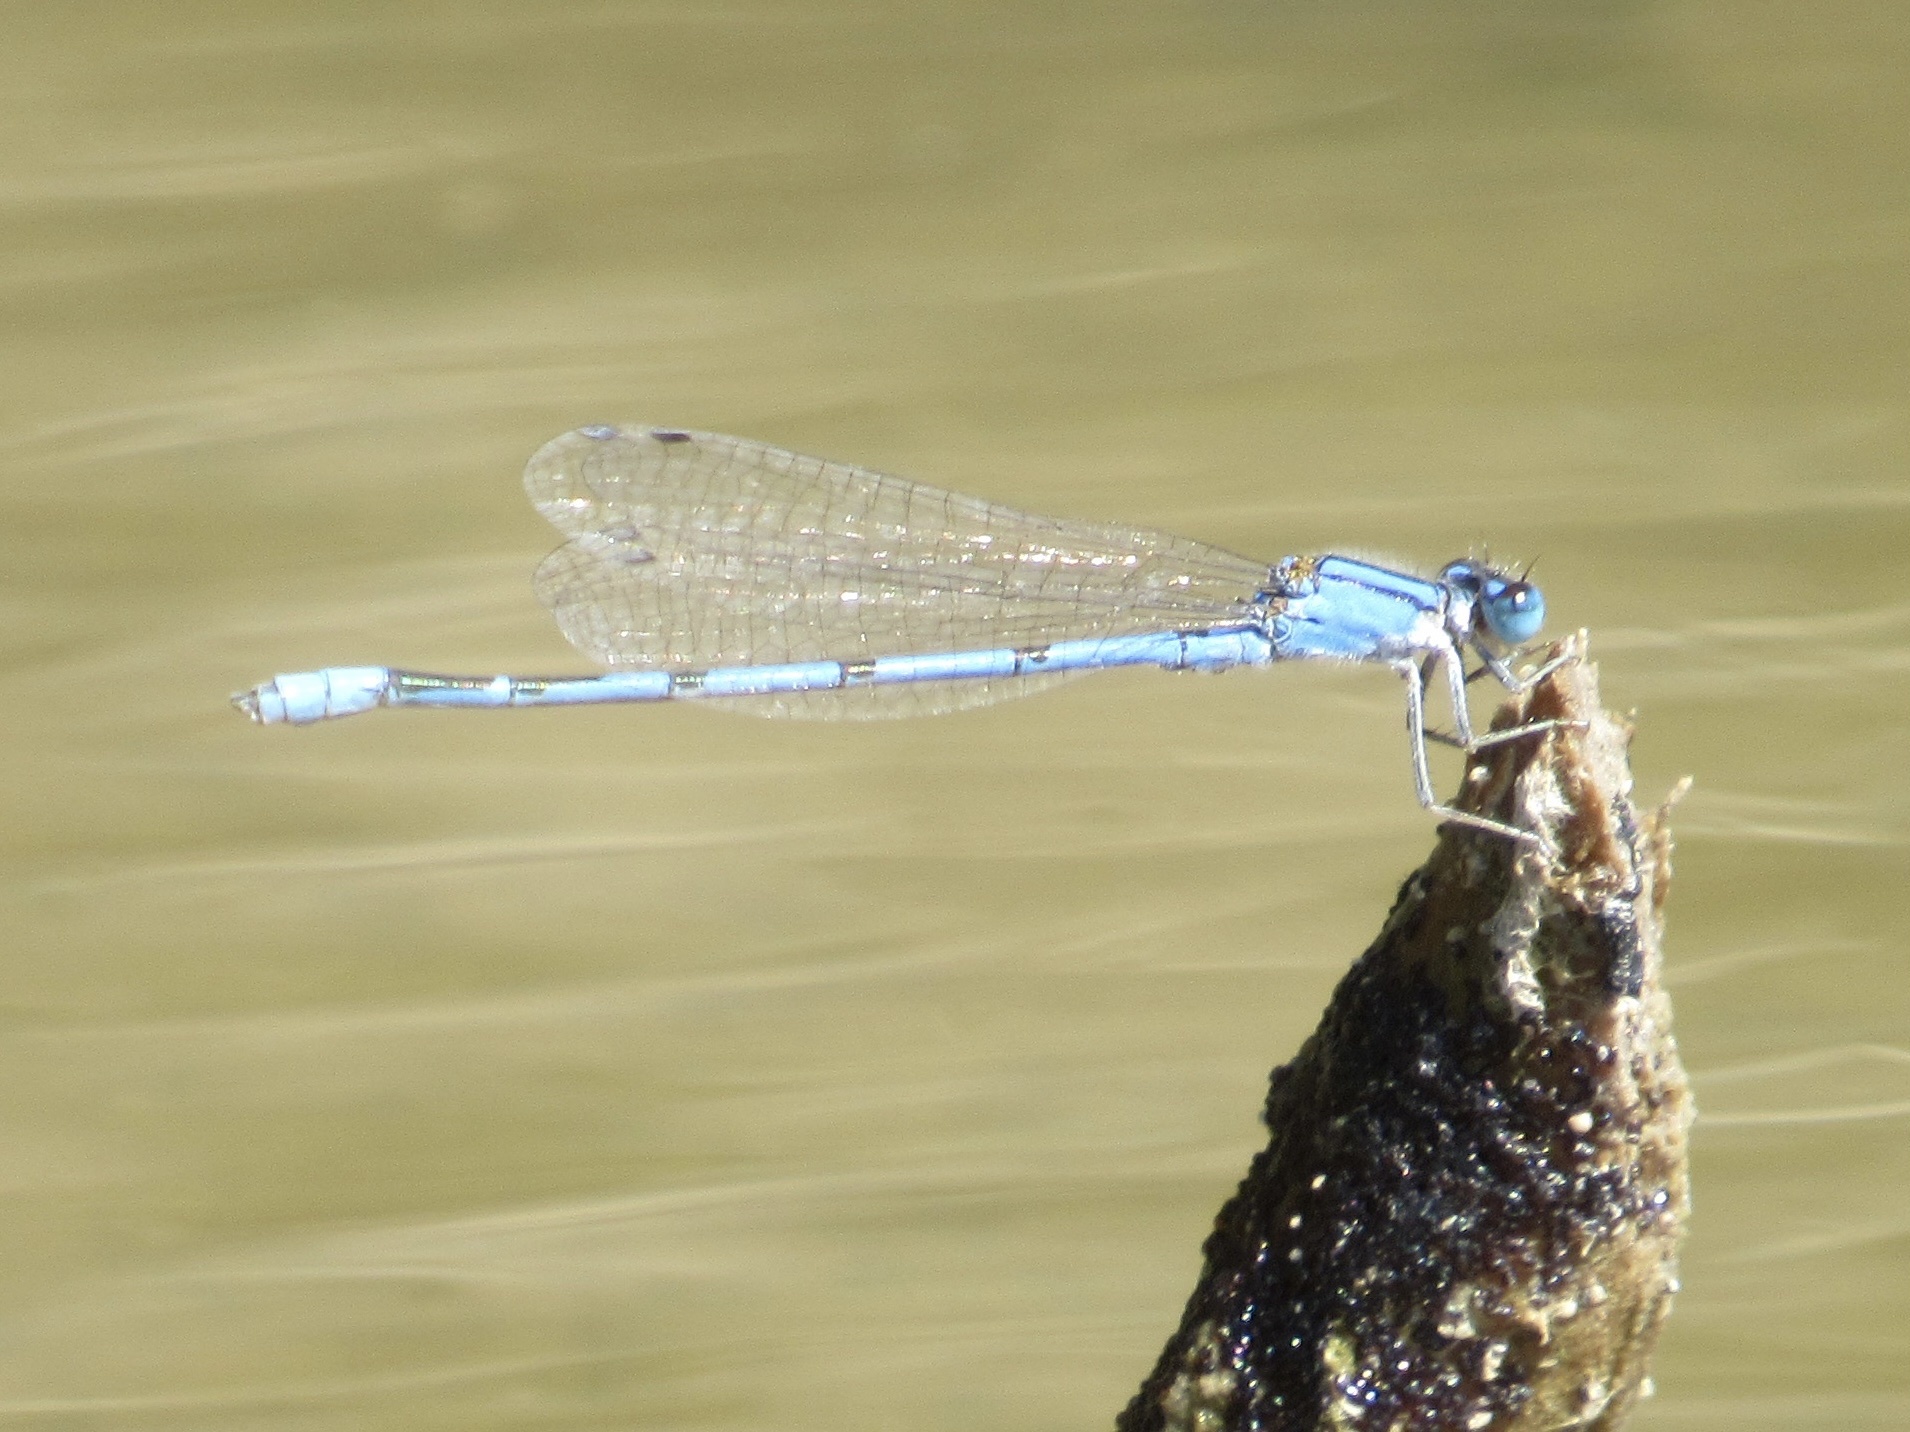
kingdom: Animalia
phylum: Arthropoda
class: Insecta
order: Odonata
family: Coenagrionidae
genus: Enallagma
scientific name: Enallagma civile
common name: Damselfly
